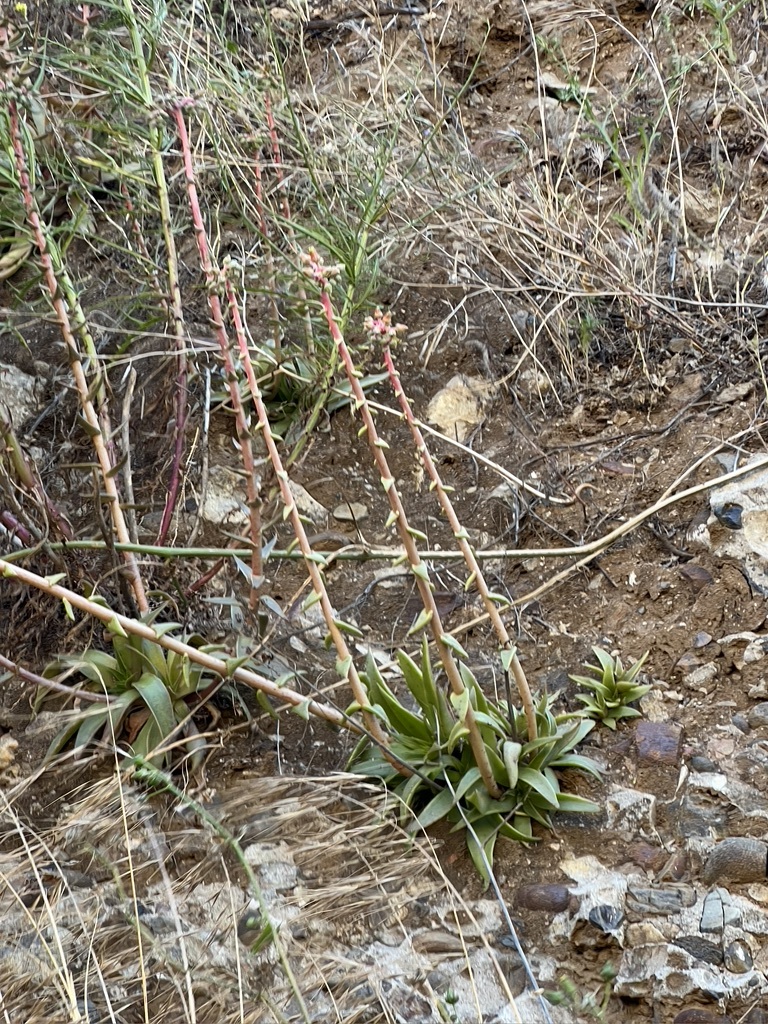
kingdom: Plantae
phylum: Tracheophyta
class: Magnoliopsida
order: Saxifragales
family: Crassulaceae
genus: Dudleya
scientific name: Dudleya lanceolata
